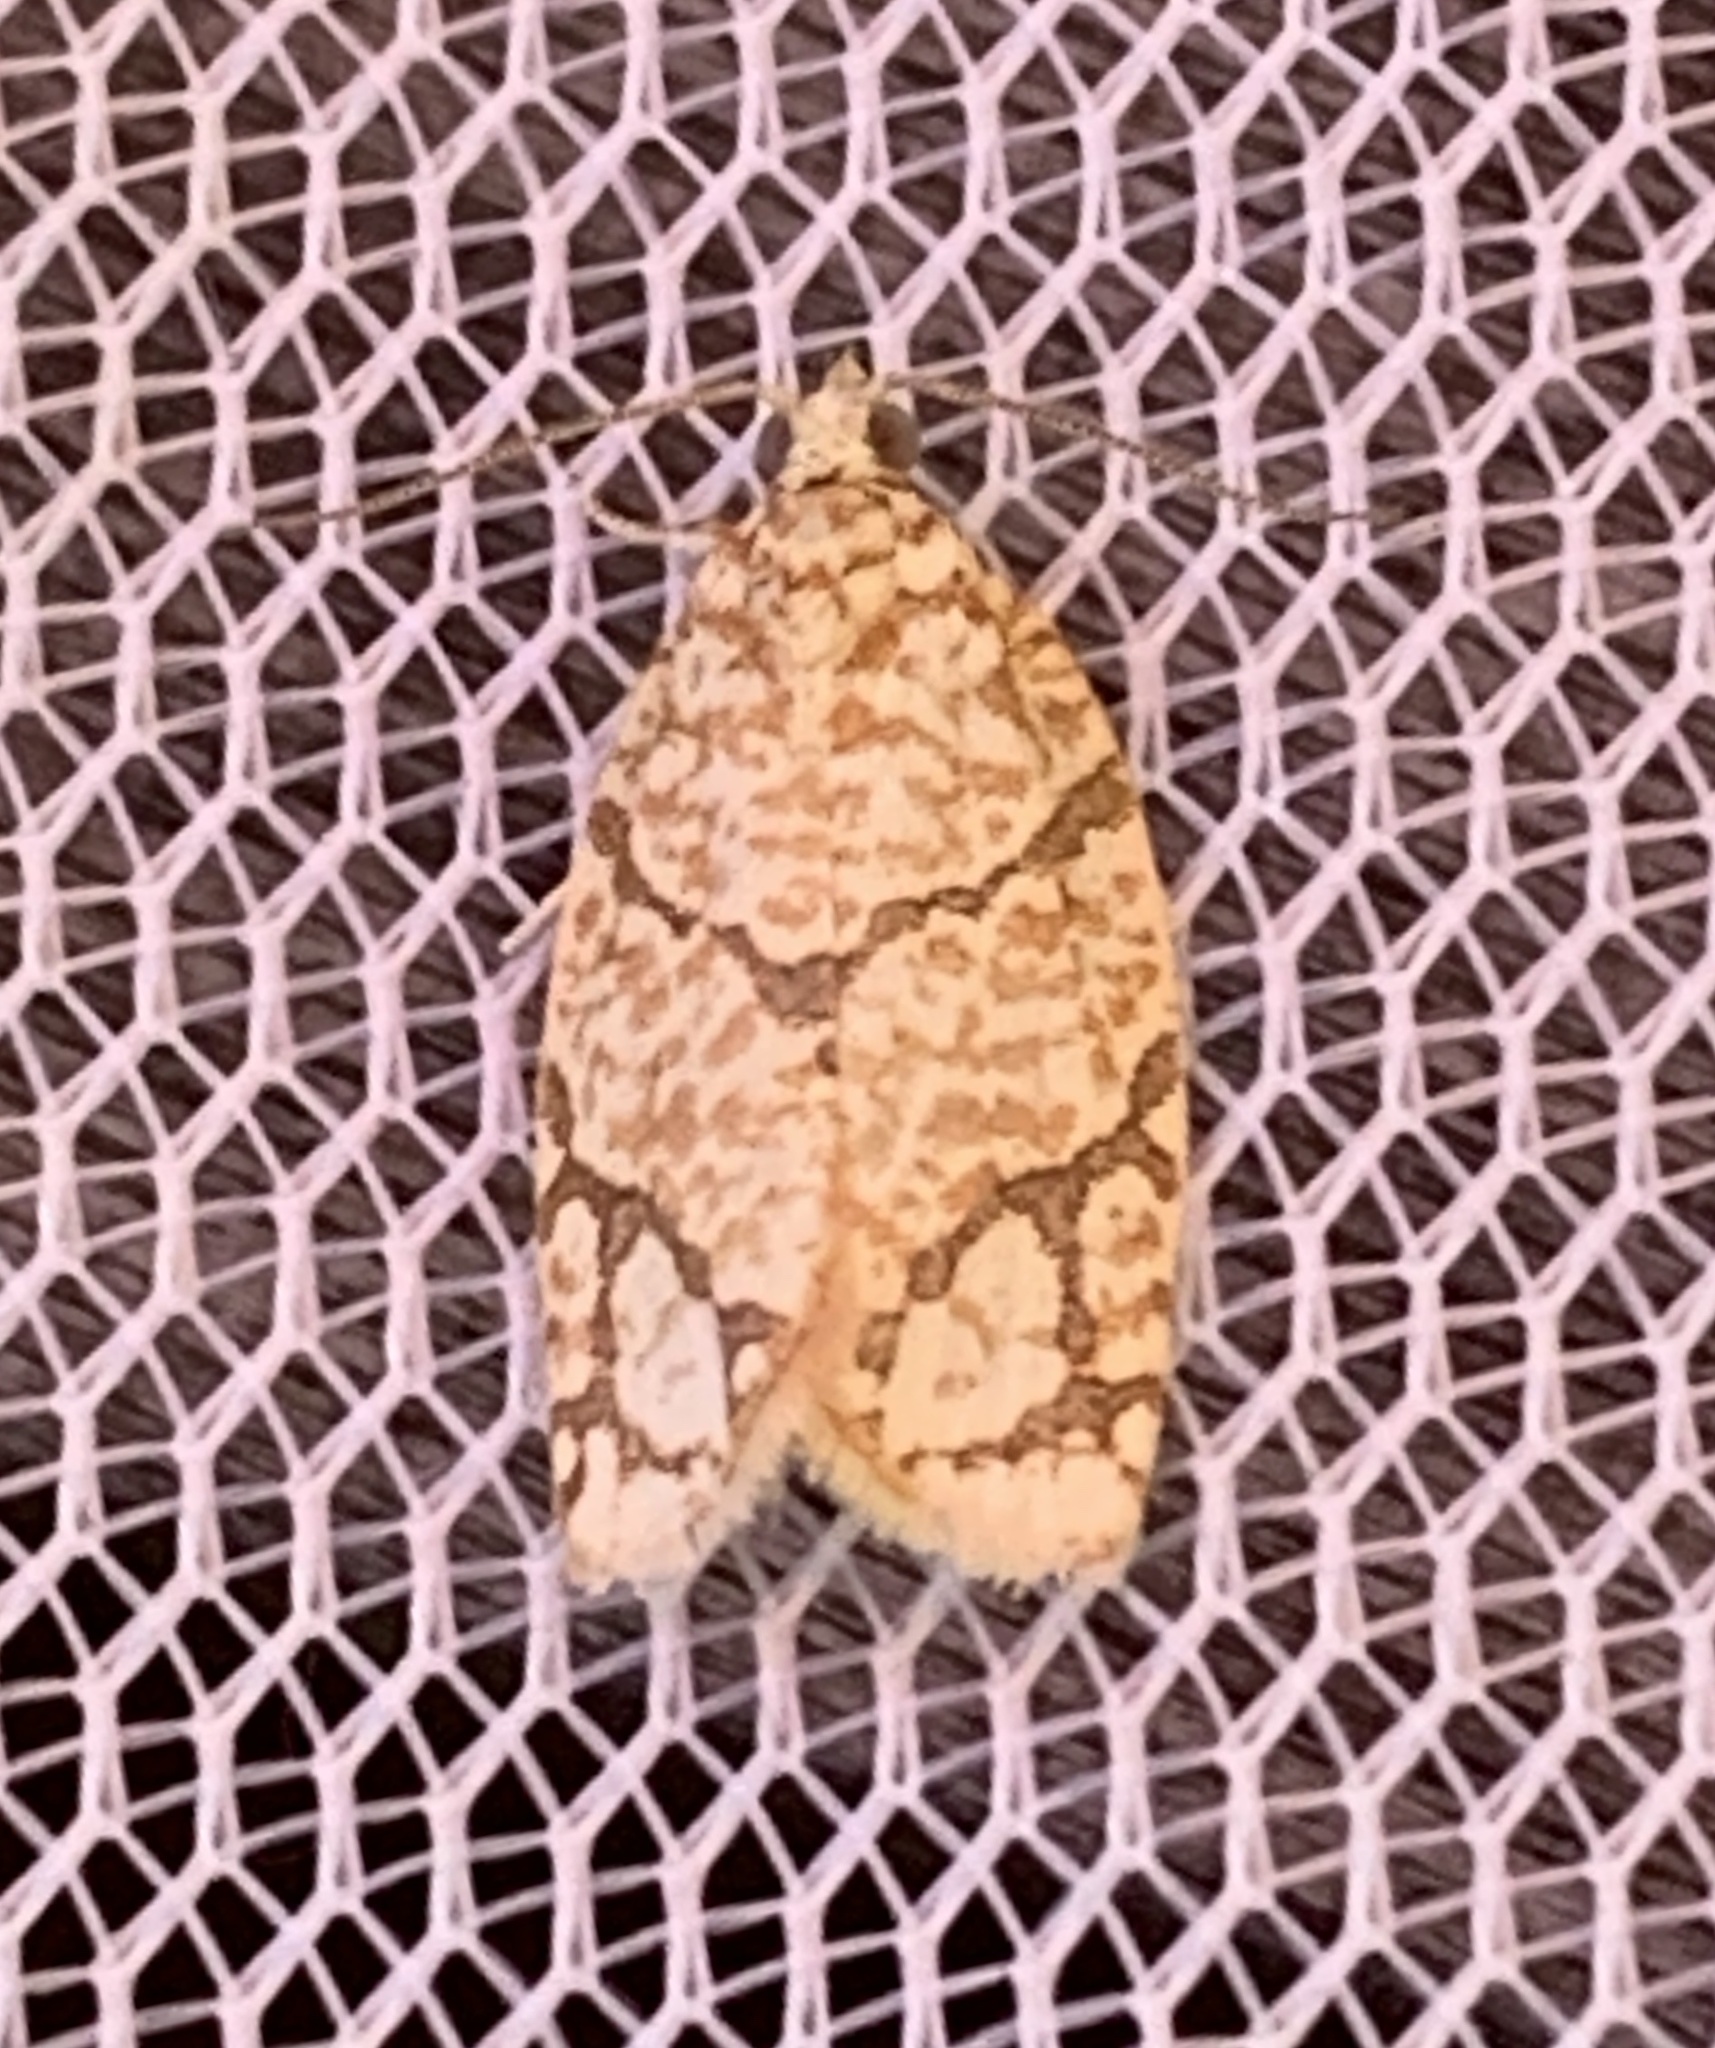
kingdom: Animalia
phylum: Arthropoda
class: Insecta
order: Lepidoptera
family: Tortricidae
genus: Argyrotaenia
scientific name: Argyrotaenia quercifoliana
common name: Yellow-winged oak leafroller moth
